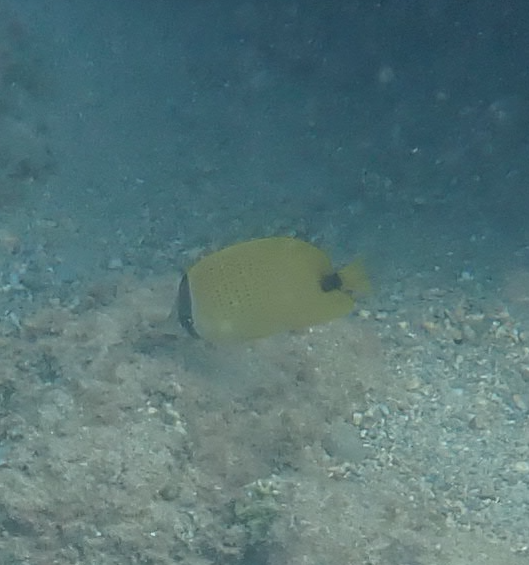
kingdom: Animalia
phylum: Chordata
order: Perciformes
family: Chaetodontidae
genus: Chaetodon
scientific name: Chaetodon miliaris
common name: Lemon butterflyfish
